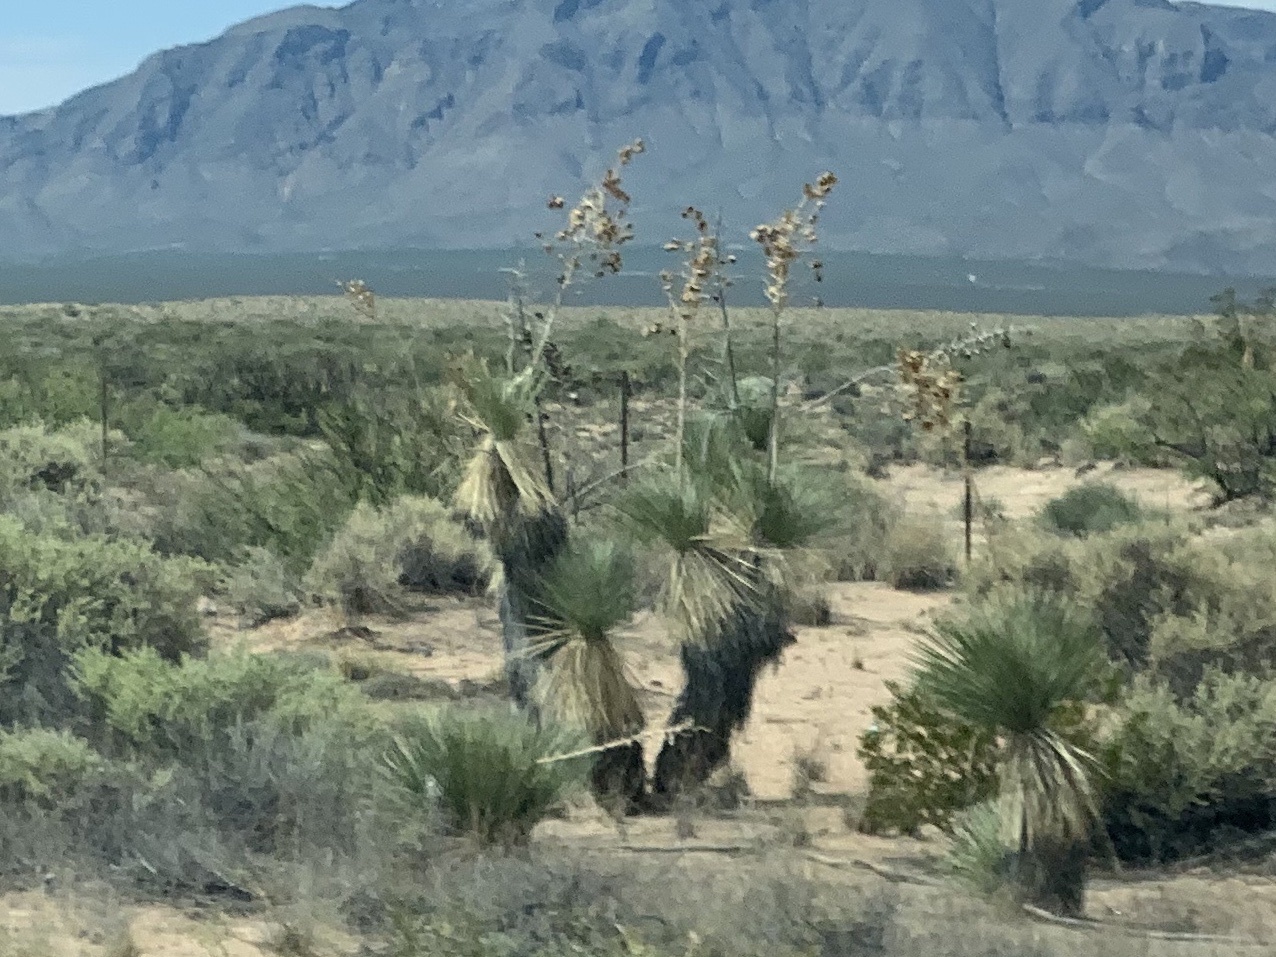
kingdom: Plantae
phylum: Tracheophyta
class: Liliopsida
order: Asparagales
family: Asparagaceae
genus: Yucca
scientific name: Yucca elata
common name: Palmella
